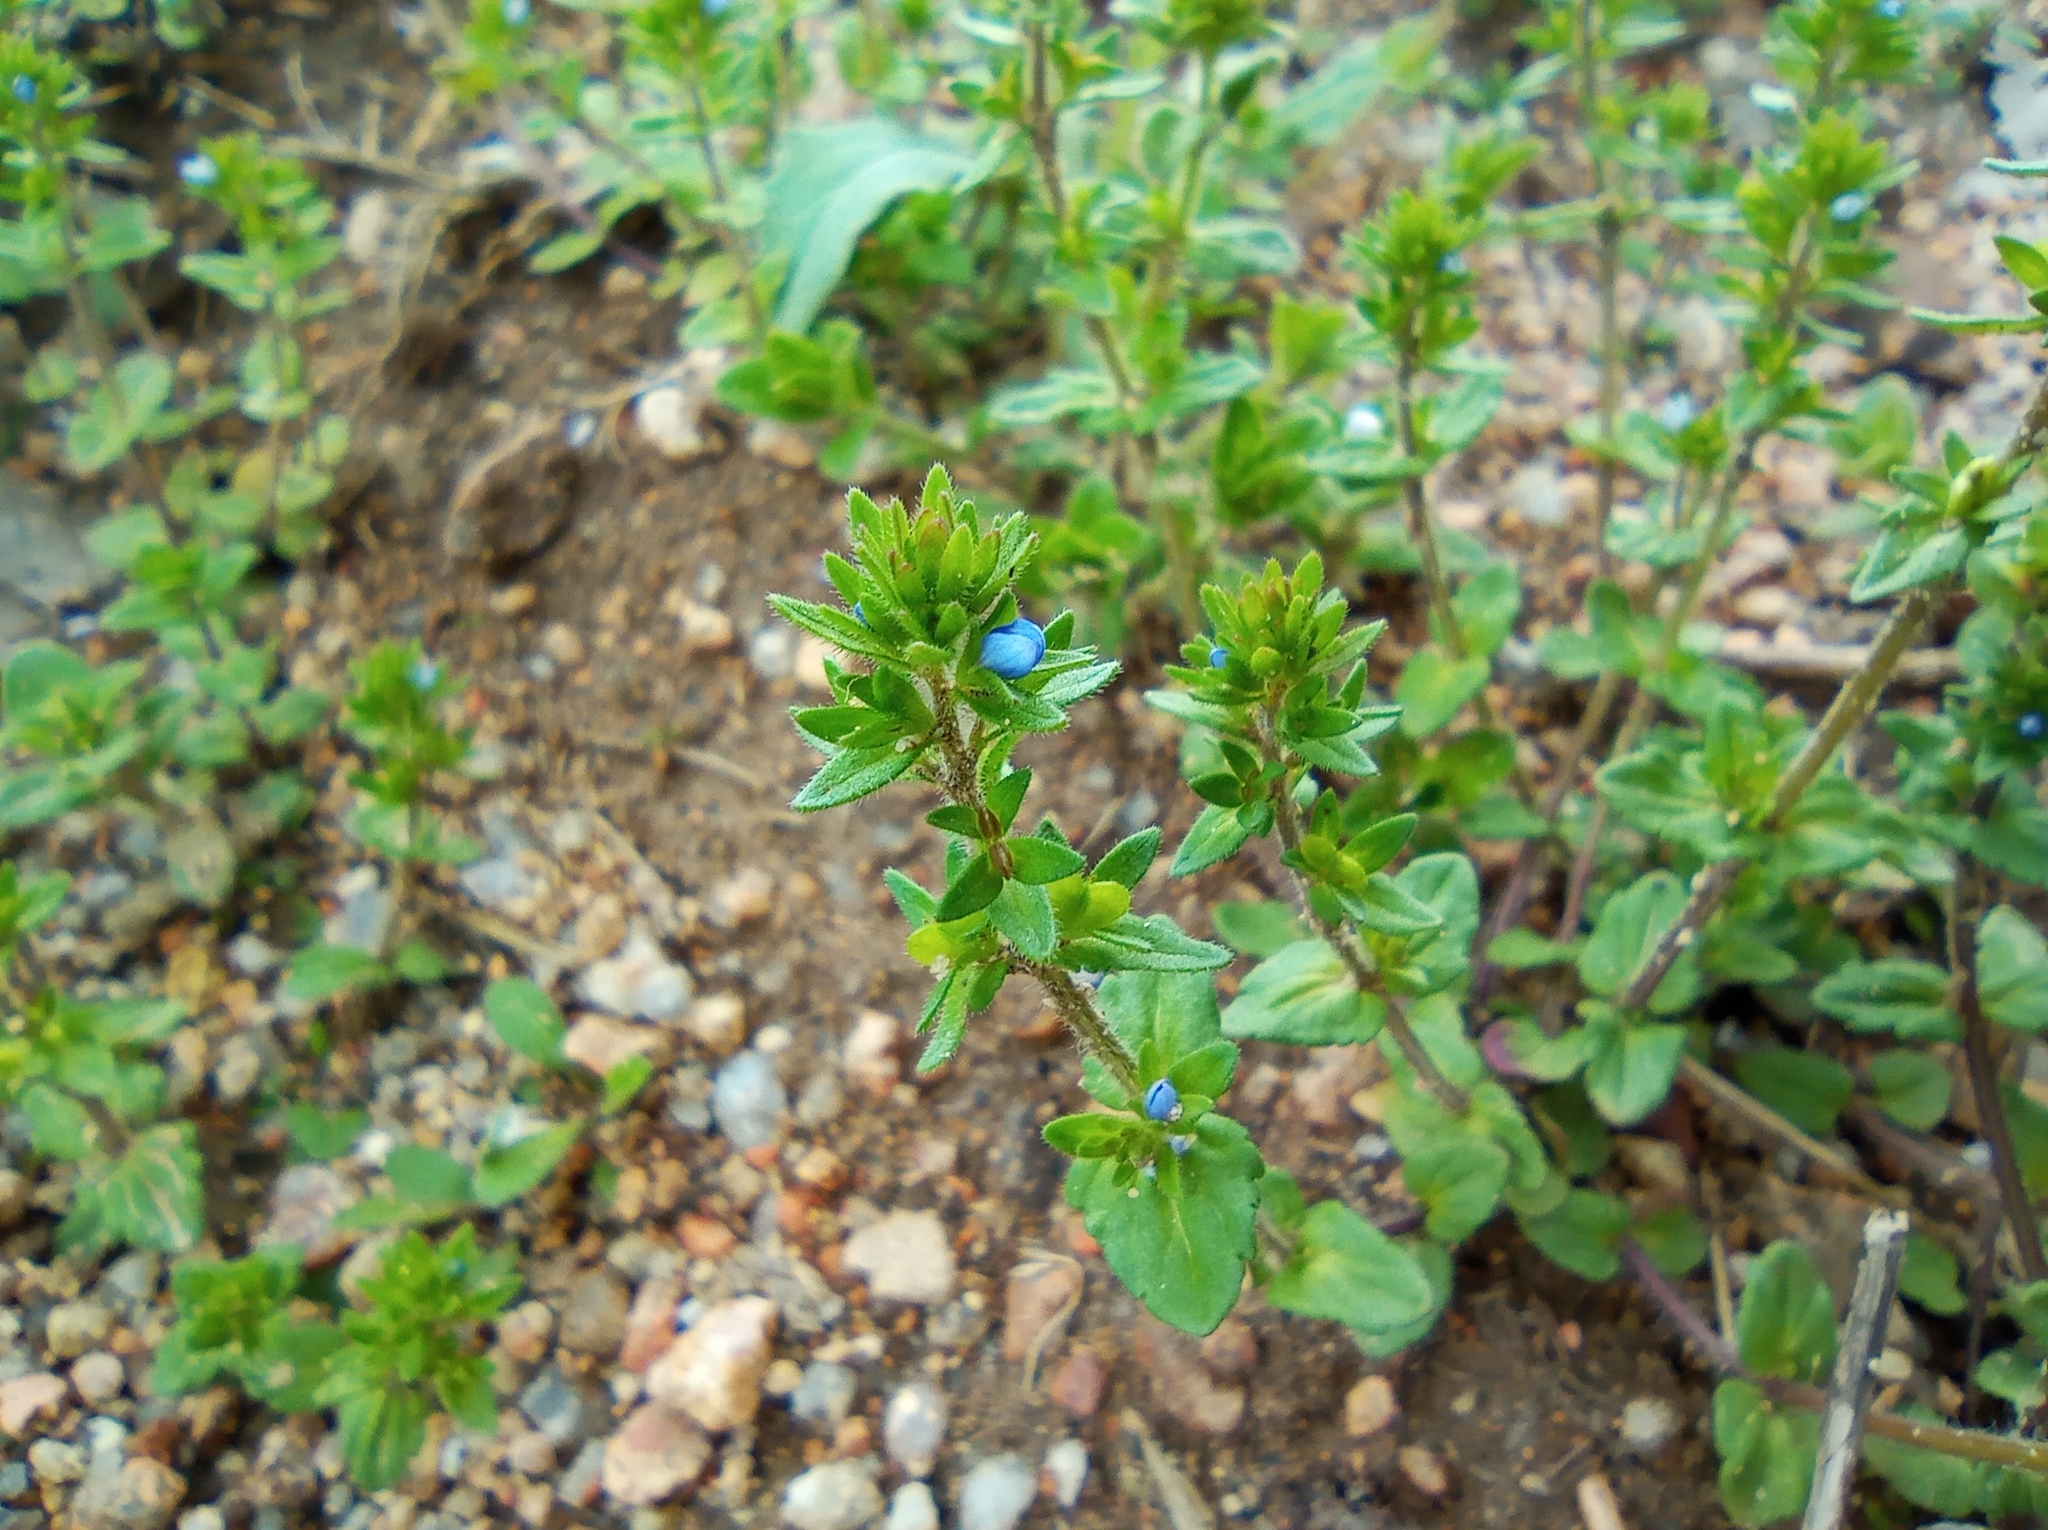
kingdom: Plantae
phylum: Tracheophyta
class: Magnoliopsida
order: Lamiales
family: Plantaginaceae
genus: Veronica
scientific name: Veronica arvensis
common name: Corn speedwell
